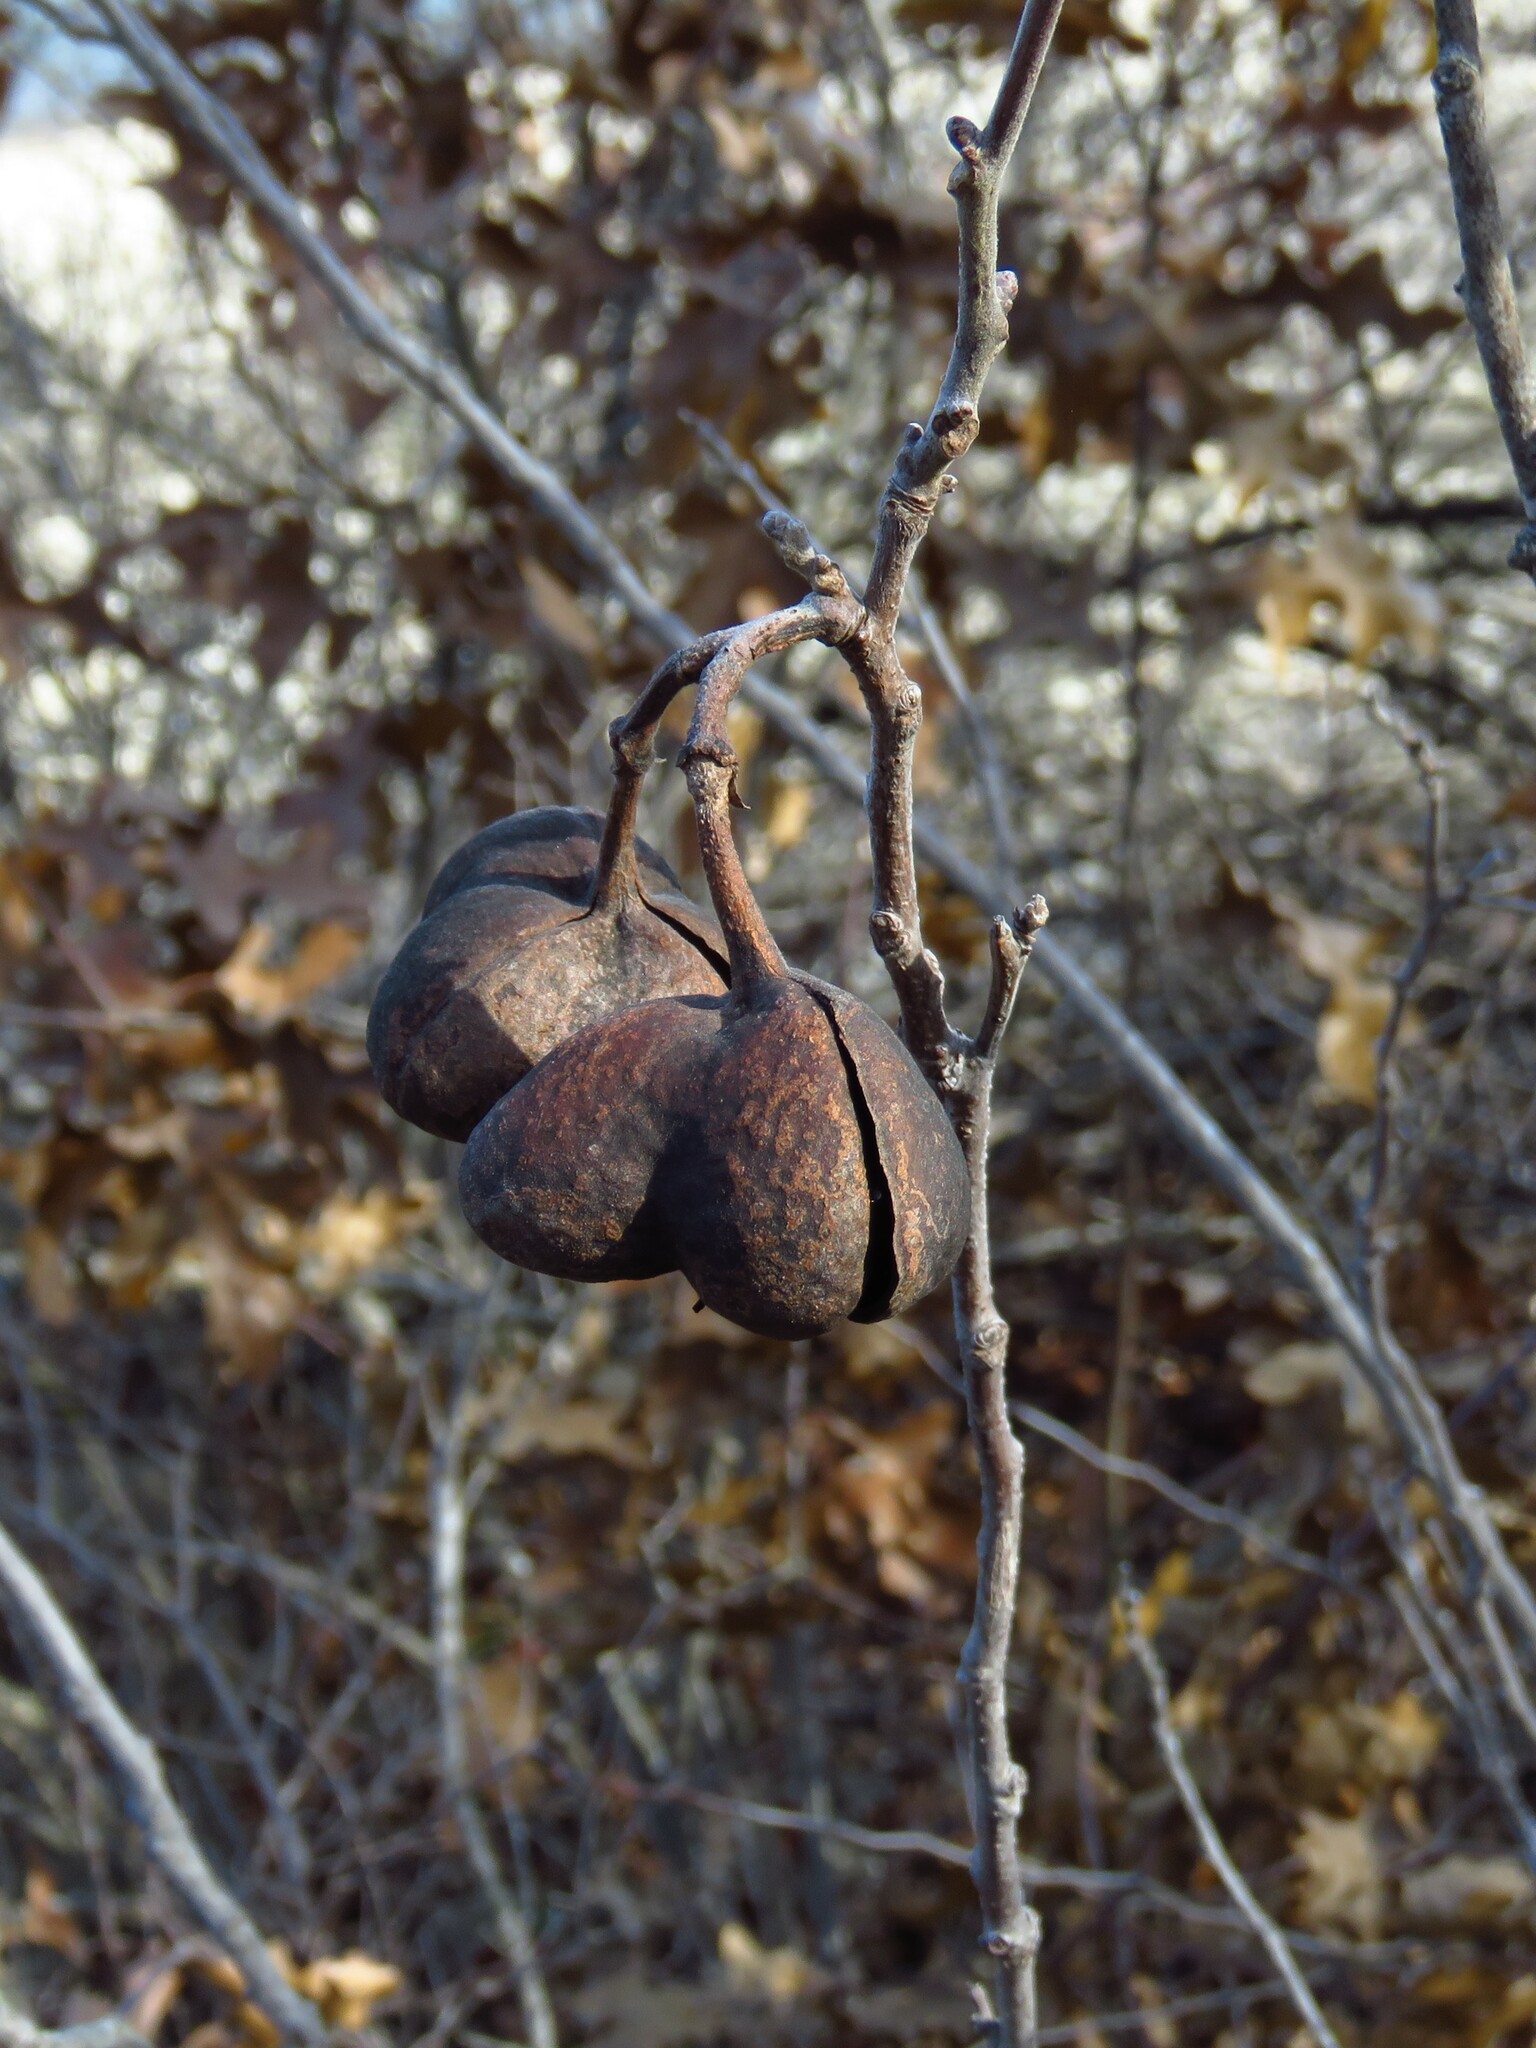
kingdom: Plantae
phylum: Tracheophyta
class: Magnoliopsida
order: Sapindales
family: Sapindaceae
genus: Ungnadia
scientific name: Ungnadia speciosa
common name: Texas-buckeye
